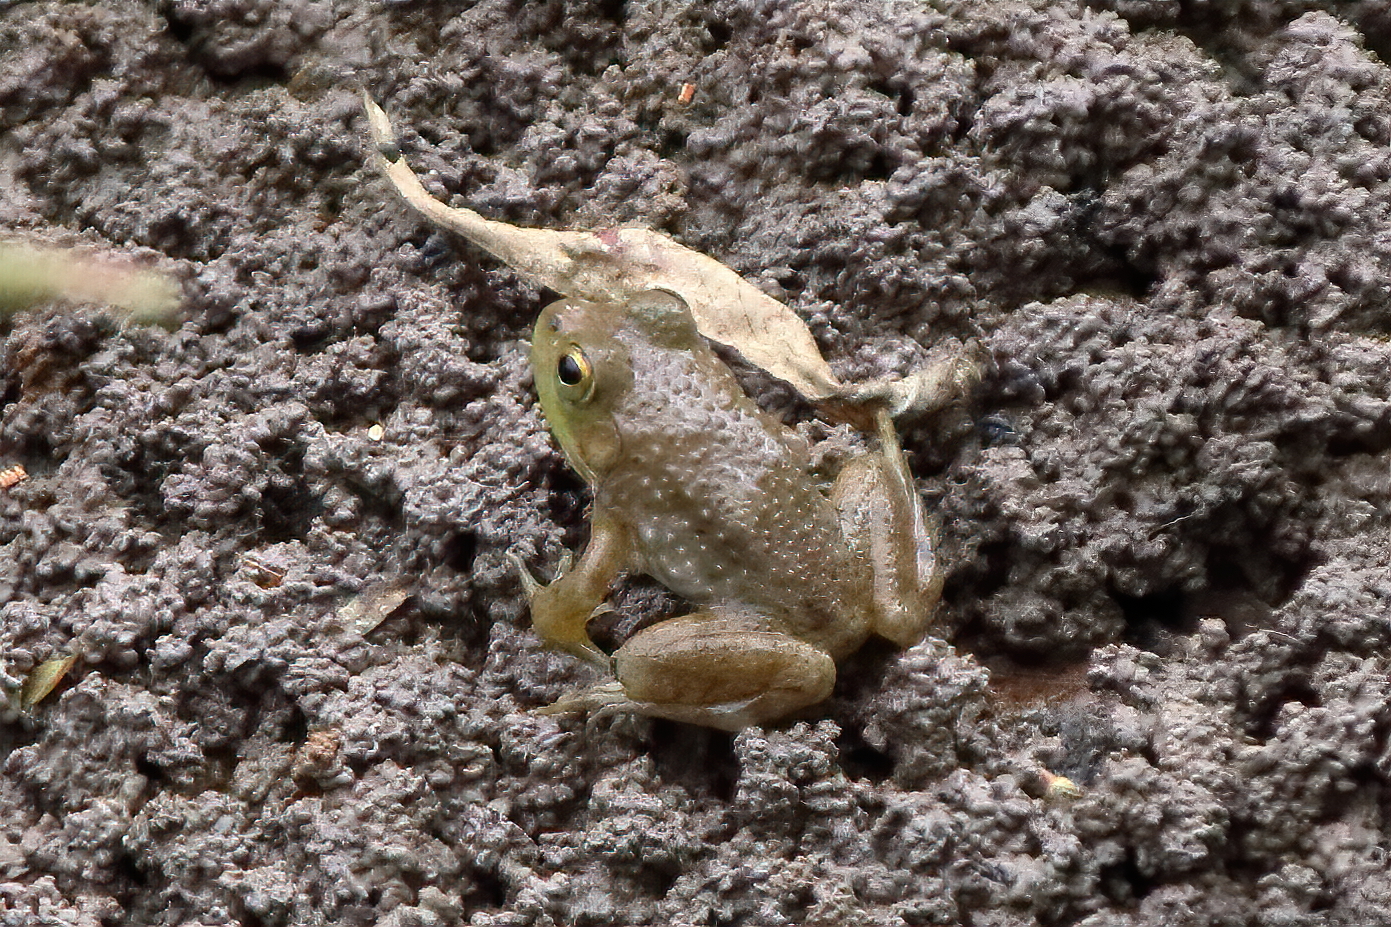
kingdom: Animalia
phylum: Chordata
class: Amphibia
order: Anura
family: Ranidae
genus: Lithobates
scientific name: Lithobates catesbeianus
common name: American bullfrog
